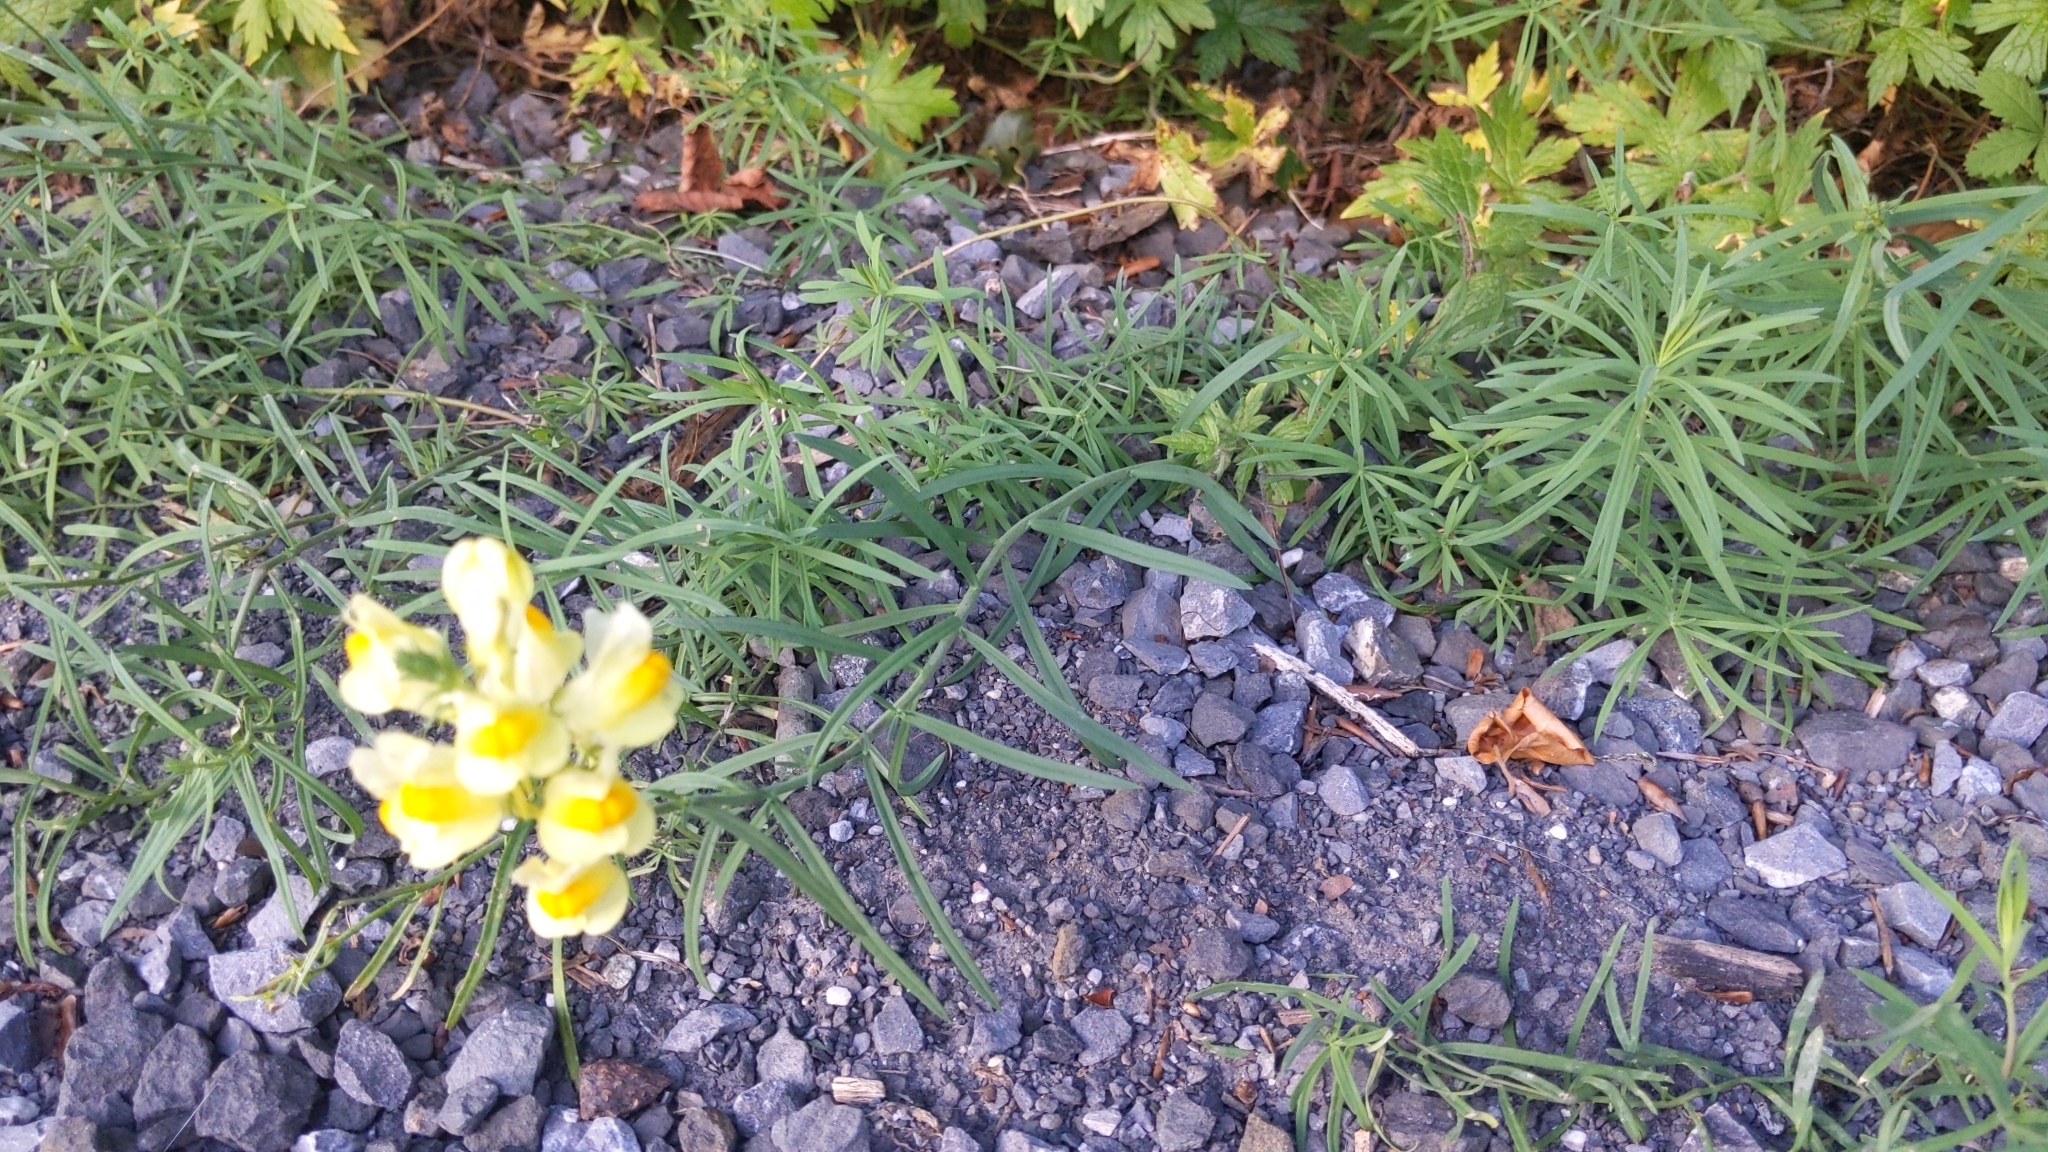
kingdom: Plantae
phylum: Tracheophyta
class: Magnoliopsida
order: Lamiales
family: Plantaginaceae
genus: Linaria
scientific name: Linaria vulgaris
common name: Butter and eggs
